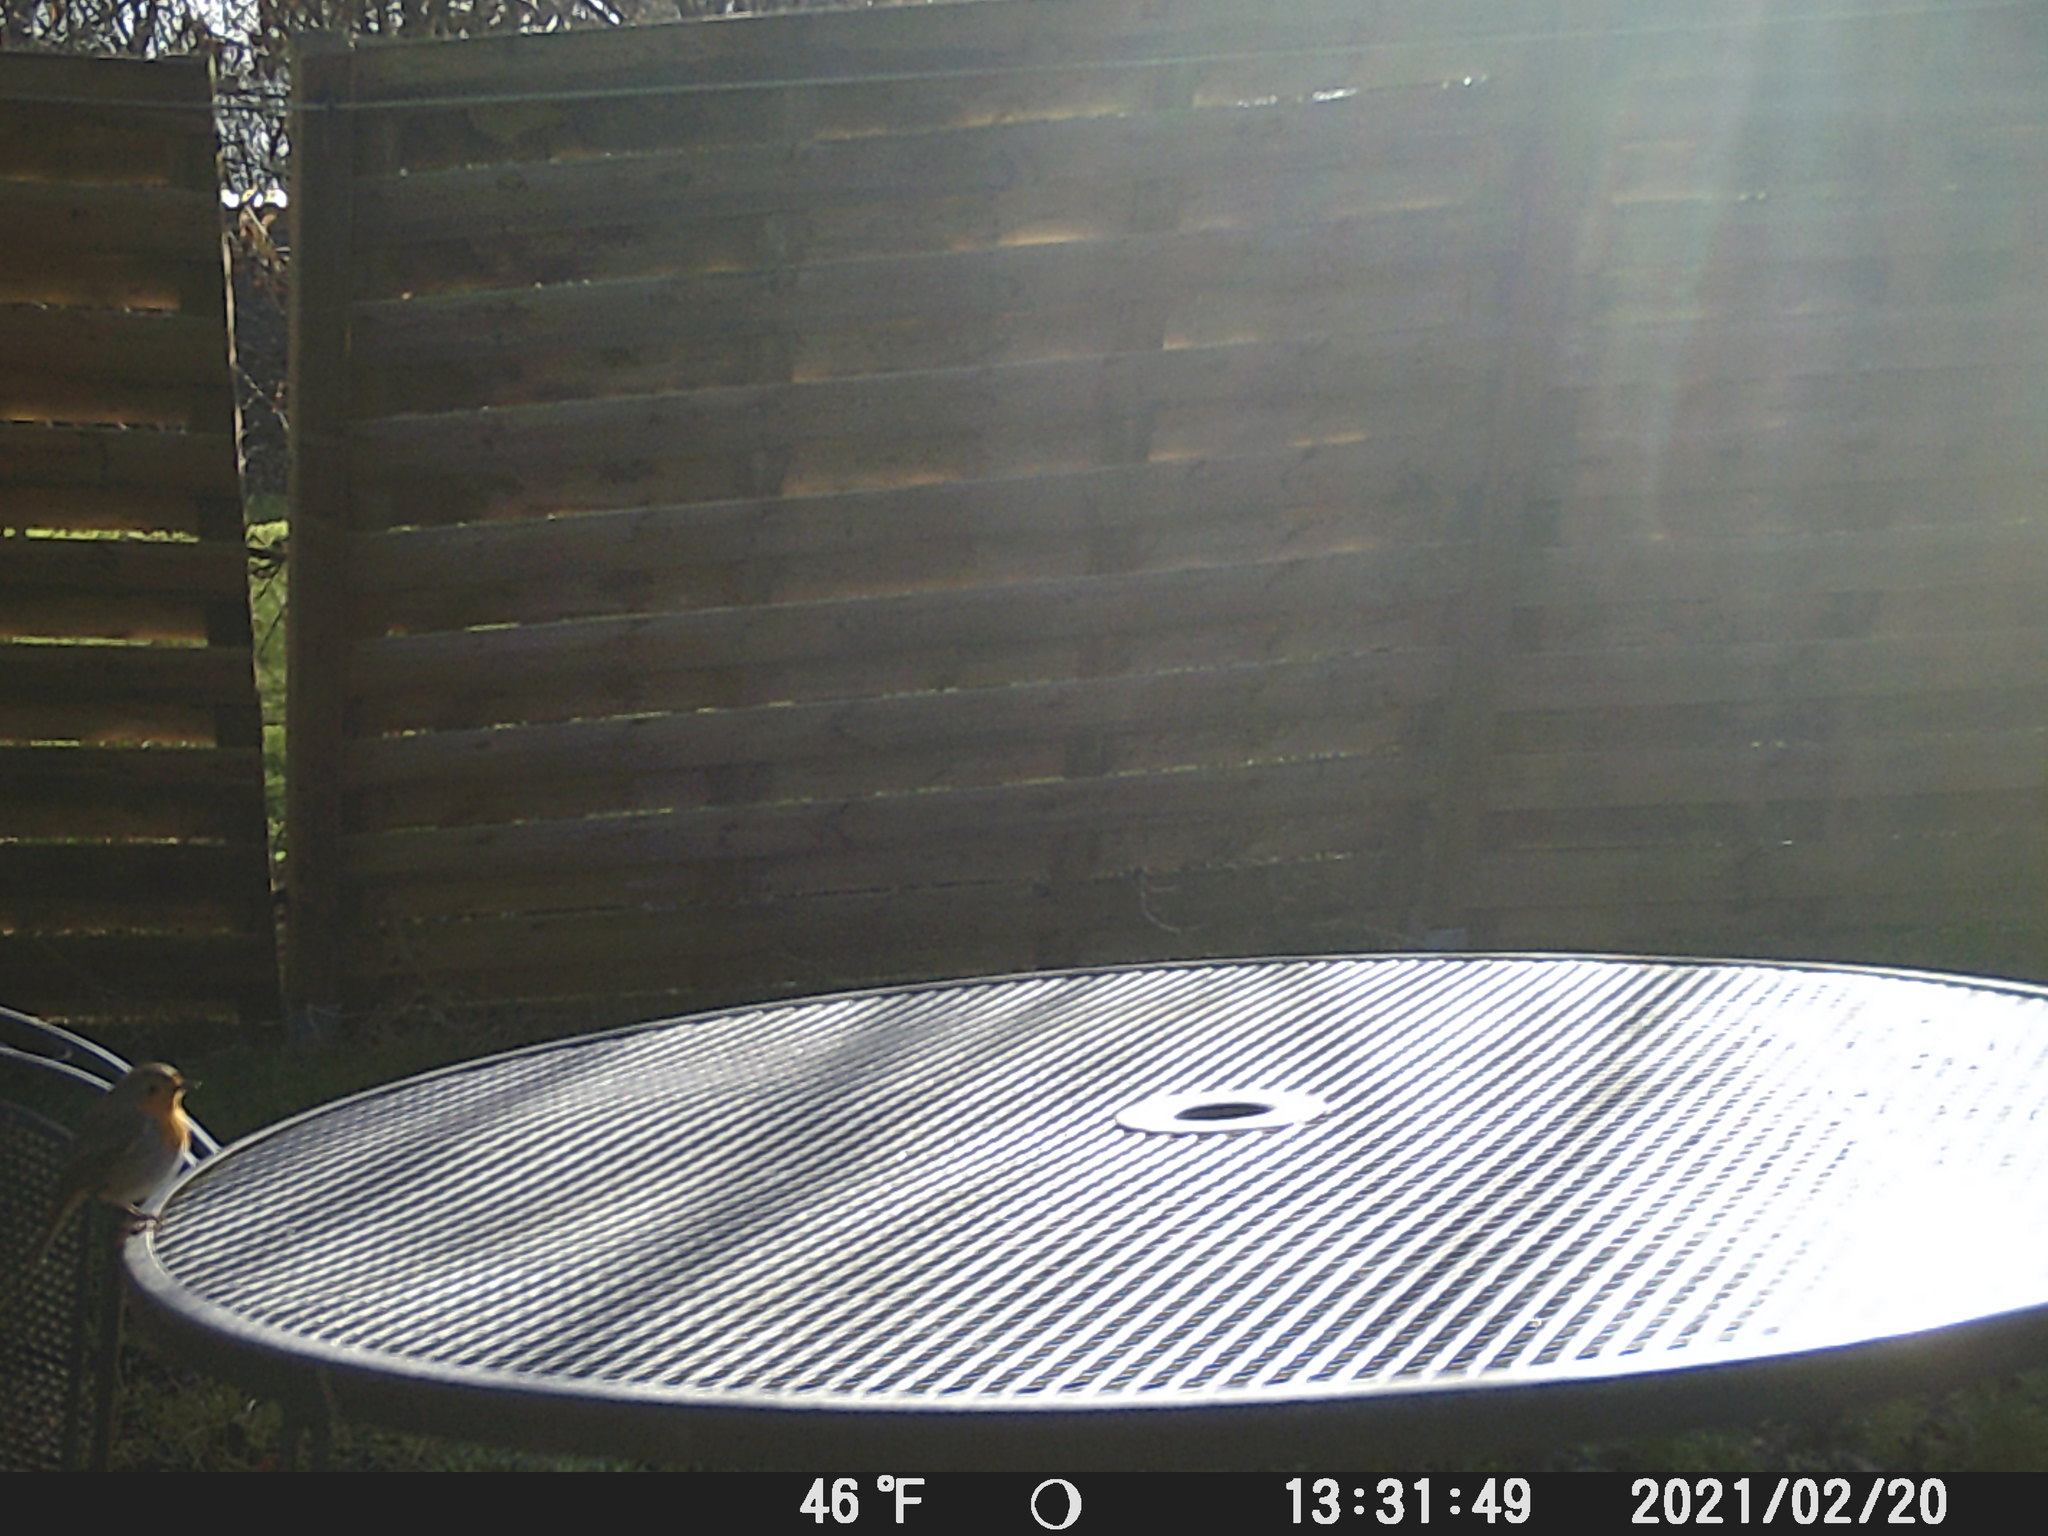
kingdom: Animalia
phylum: Chordata
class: Aves
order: Passeriformes
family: Muscicapidae
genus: Erithacus
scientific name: Erithacus rubecula
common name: European robin
